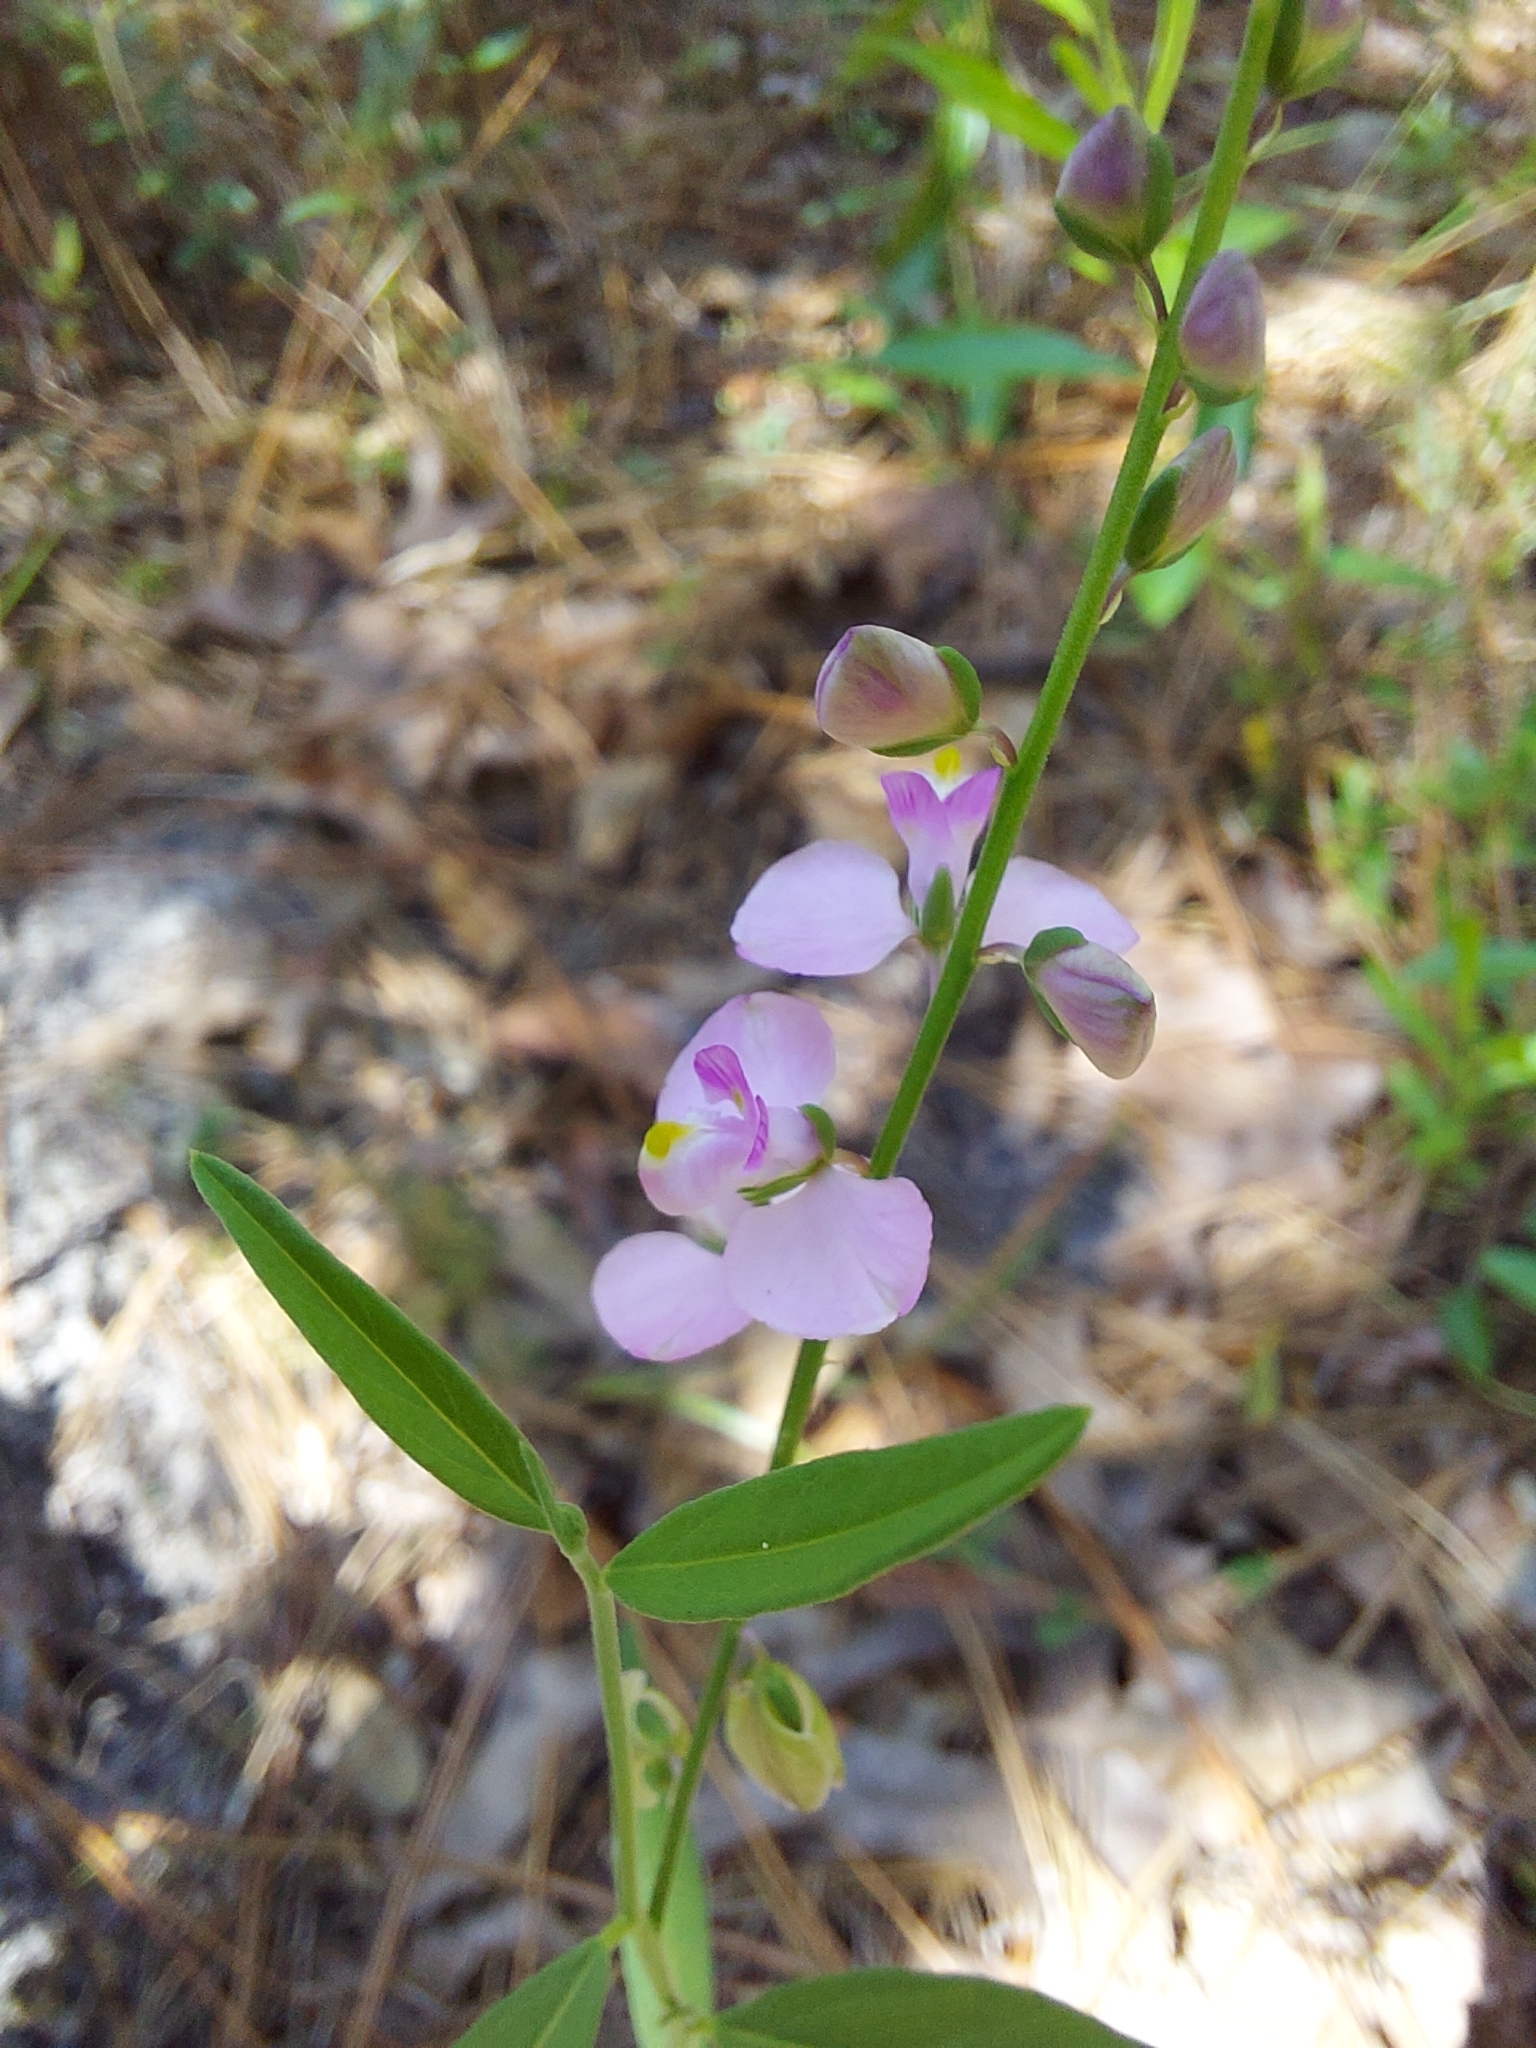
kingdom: Plantae
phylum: Tracheophyta
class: Magnoliopsida
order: Fabales
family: Polygalaceae
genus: Asemeia
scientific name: Asemeia grandiflora
